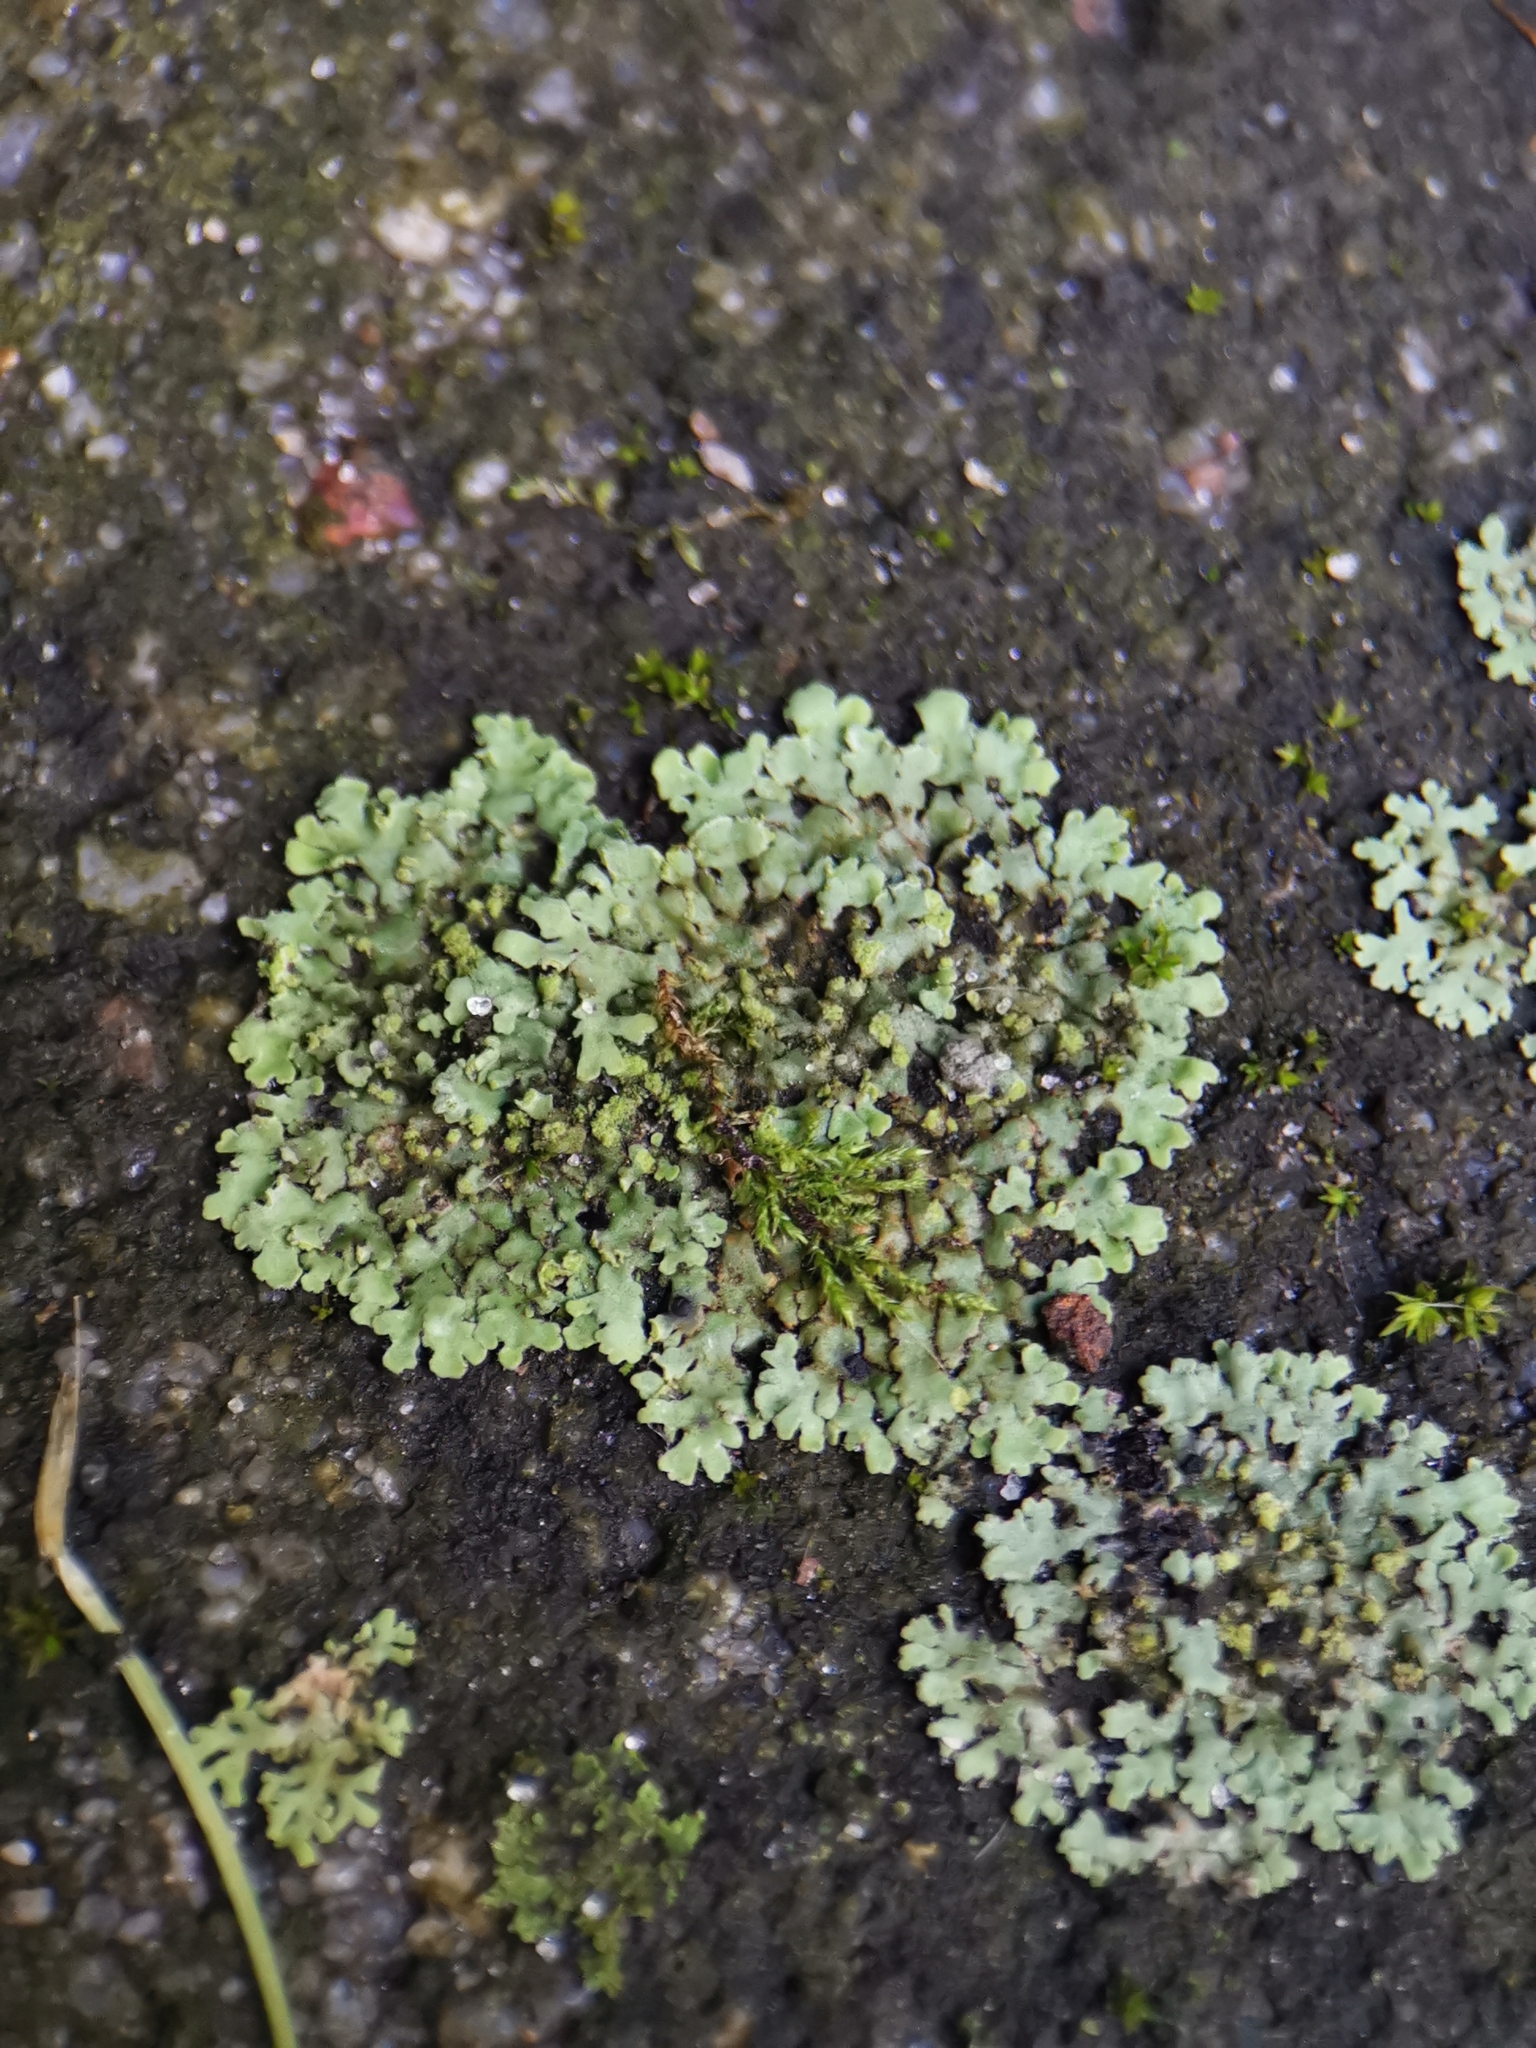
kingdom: Fungi
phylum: Ascomycota
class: Lecanoromycetes
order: Caliciales
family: Physciaceae
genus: Phaeophyscia
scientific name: Phaeophyscia orbicularis
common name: Mealy shadow lichen
